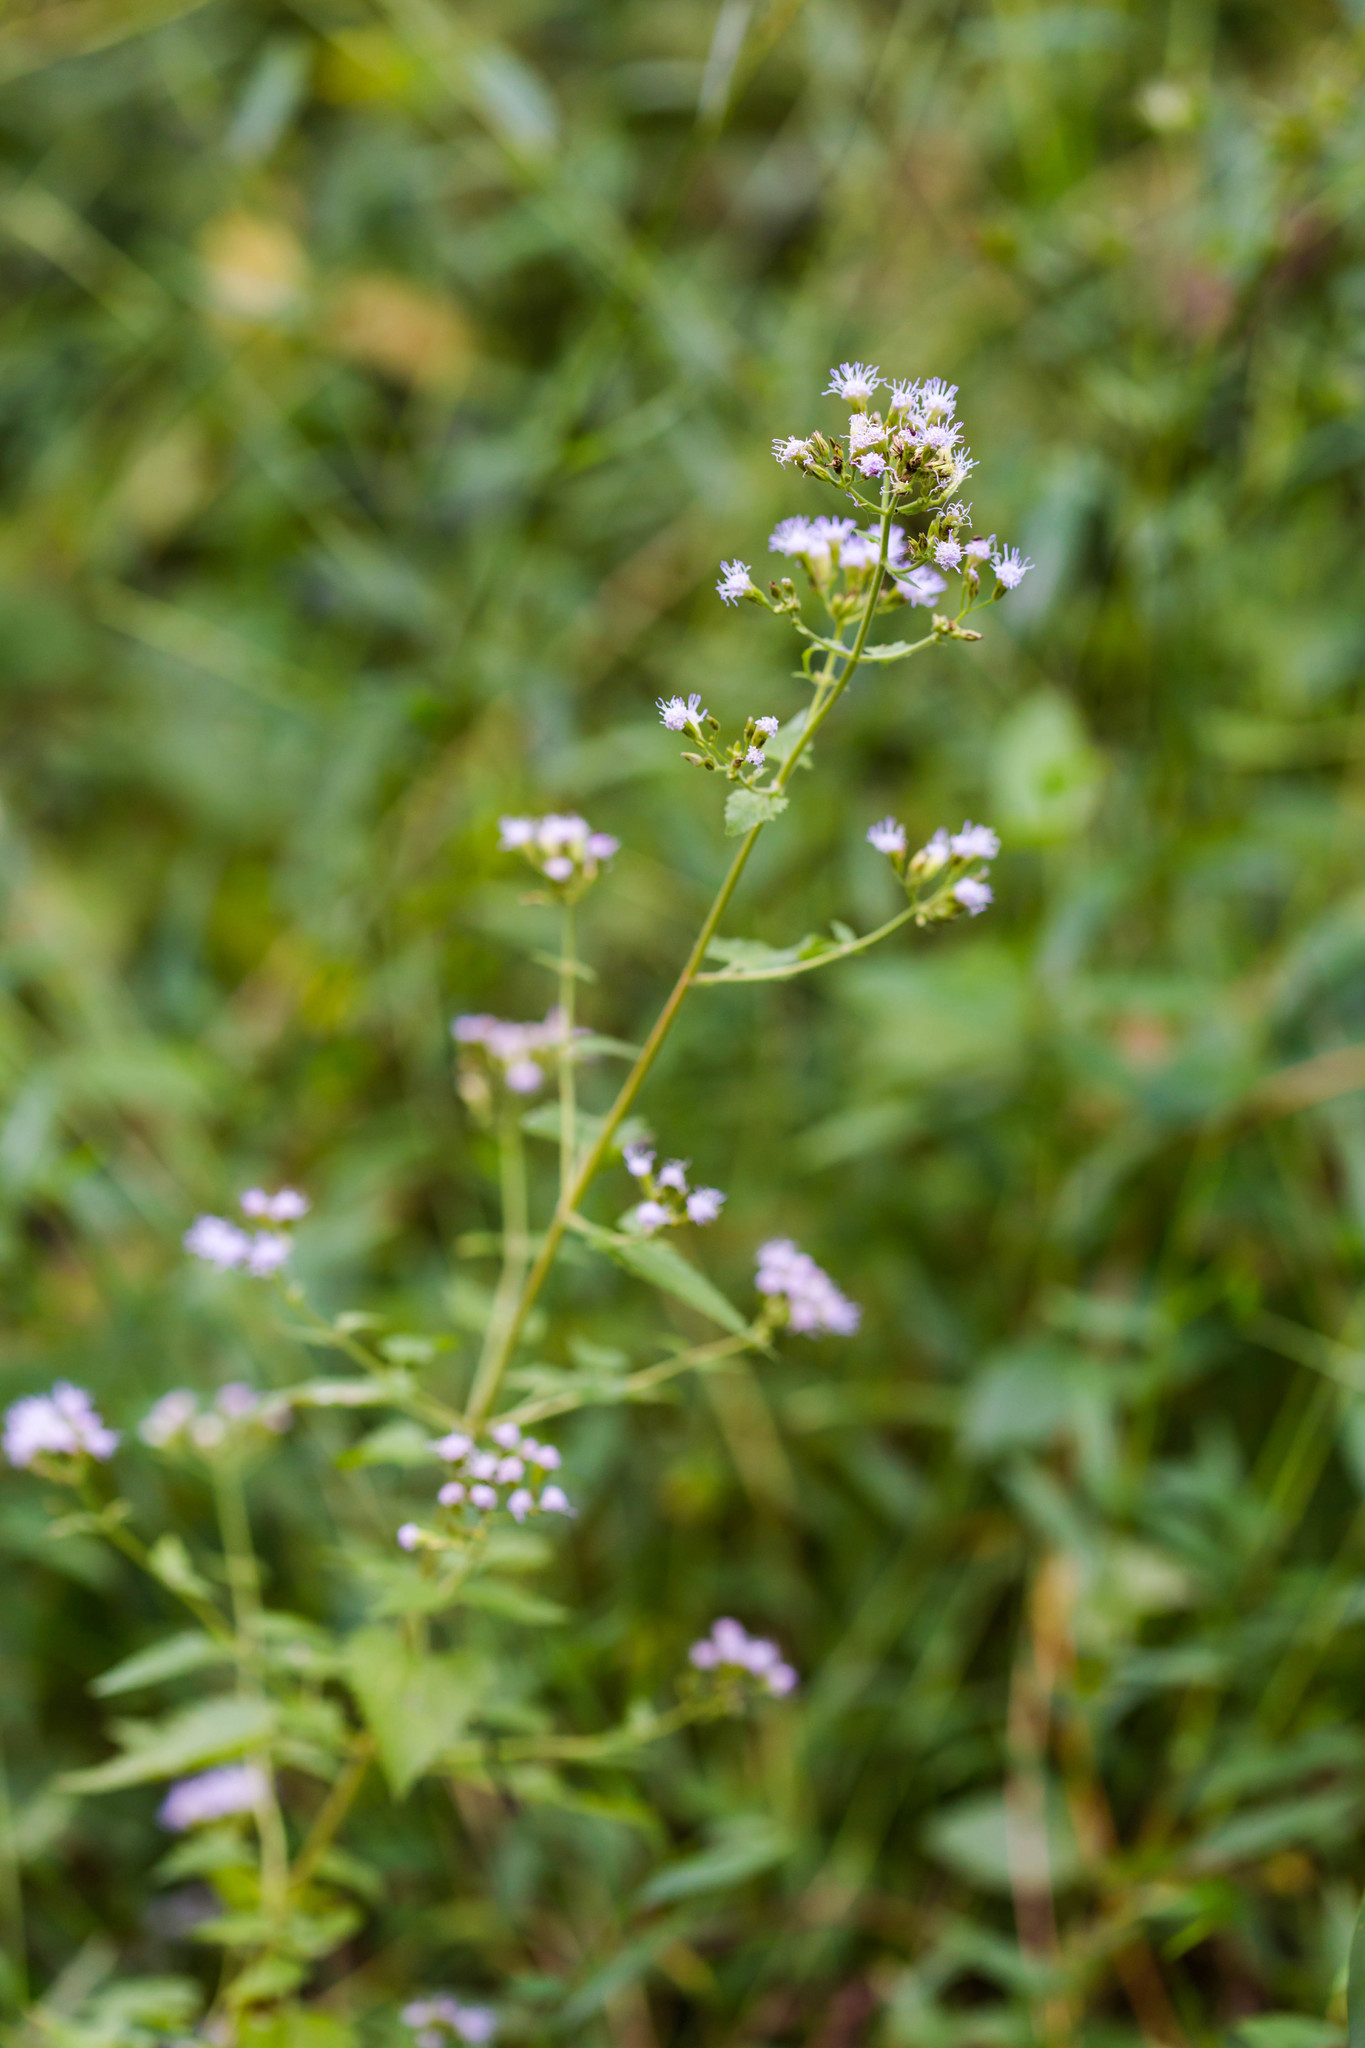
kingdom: Plantae
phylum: Tracheophyta
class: Magnoliopsida
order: Asterales
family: Asteraceae
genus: Fleischmannia
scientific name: Fleischmannia incarnata
